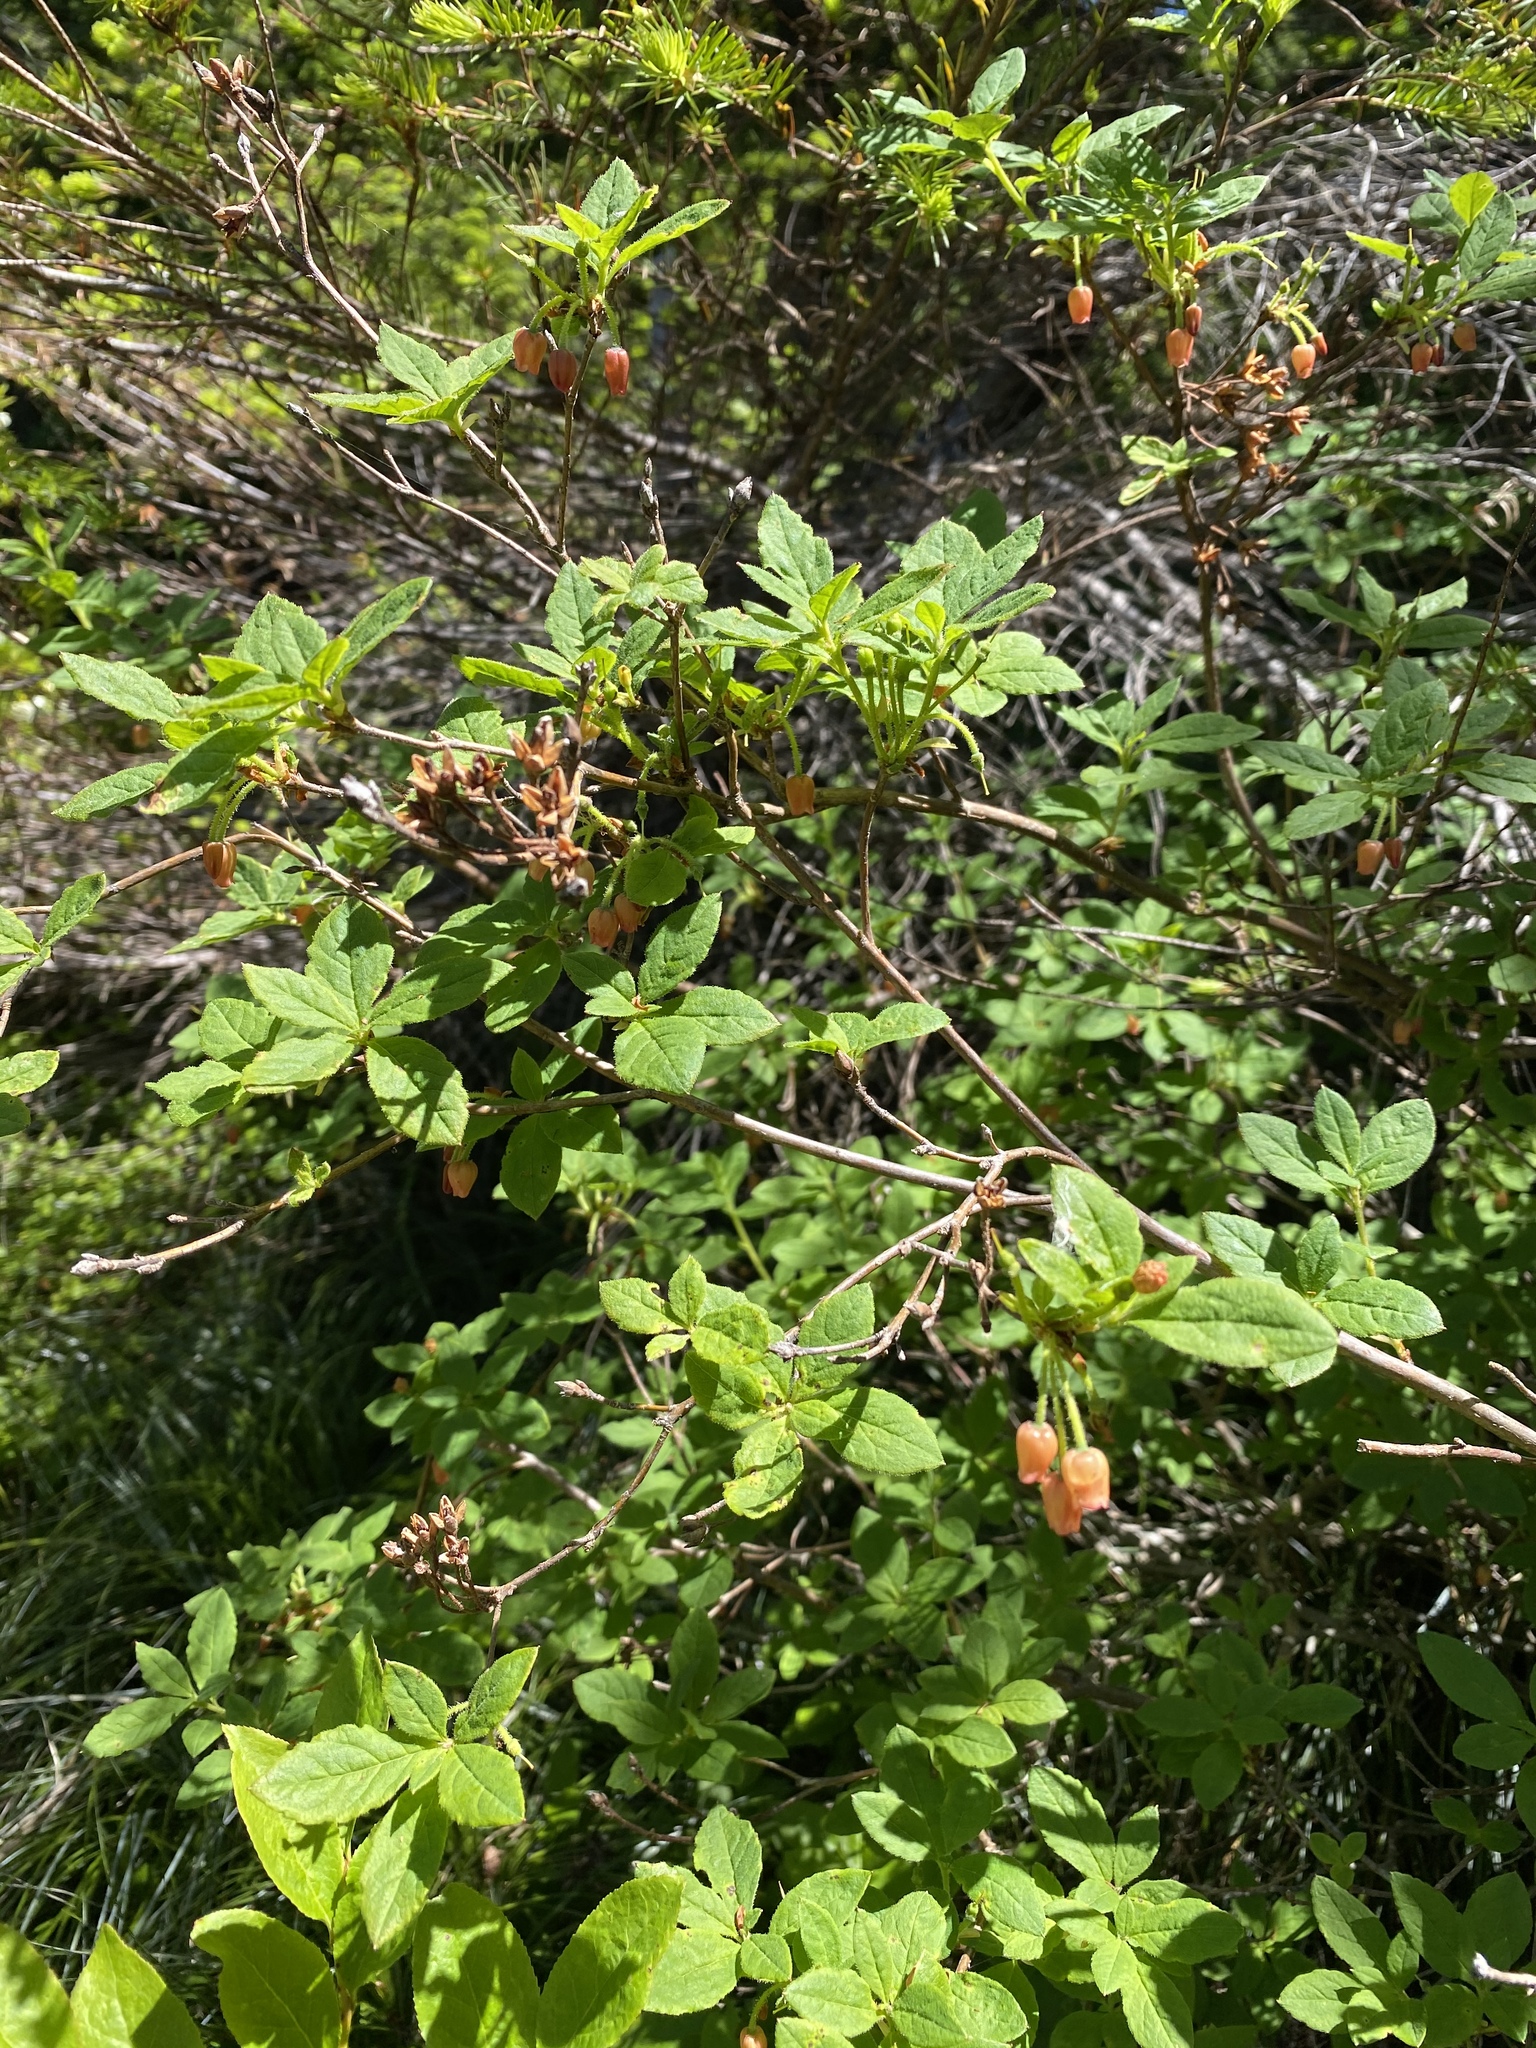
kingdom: Plantae
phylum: Tracheophyta
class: Magnoliopsida
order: Ericales
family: Ericaceae
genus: Rhododendron
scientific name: Rhododendron menziesii
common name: Pacific menziesia
